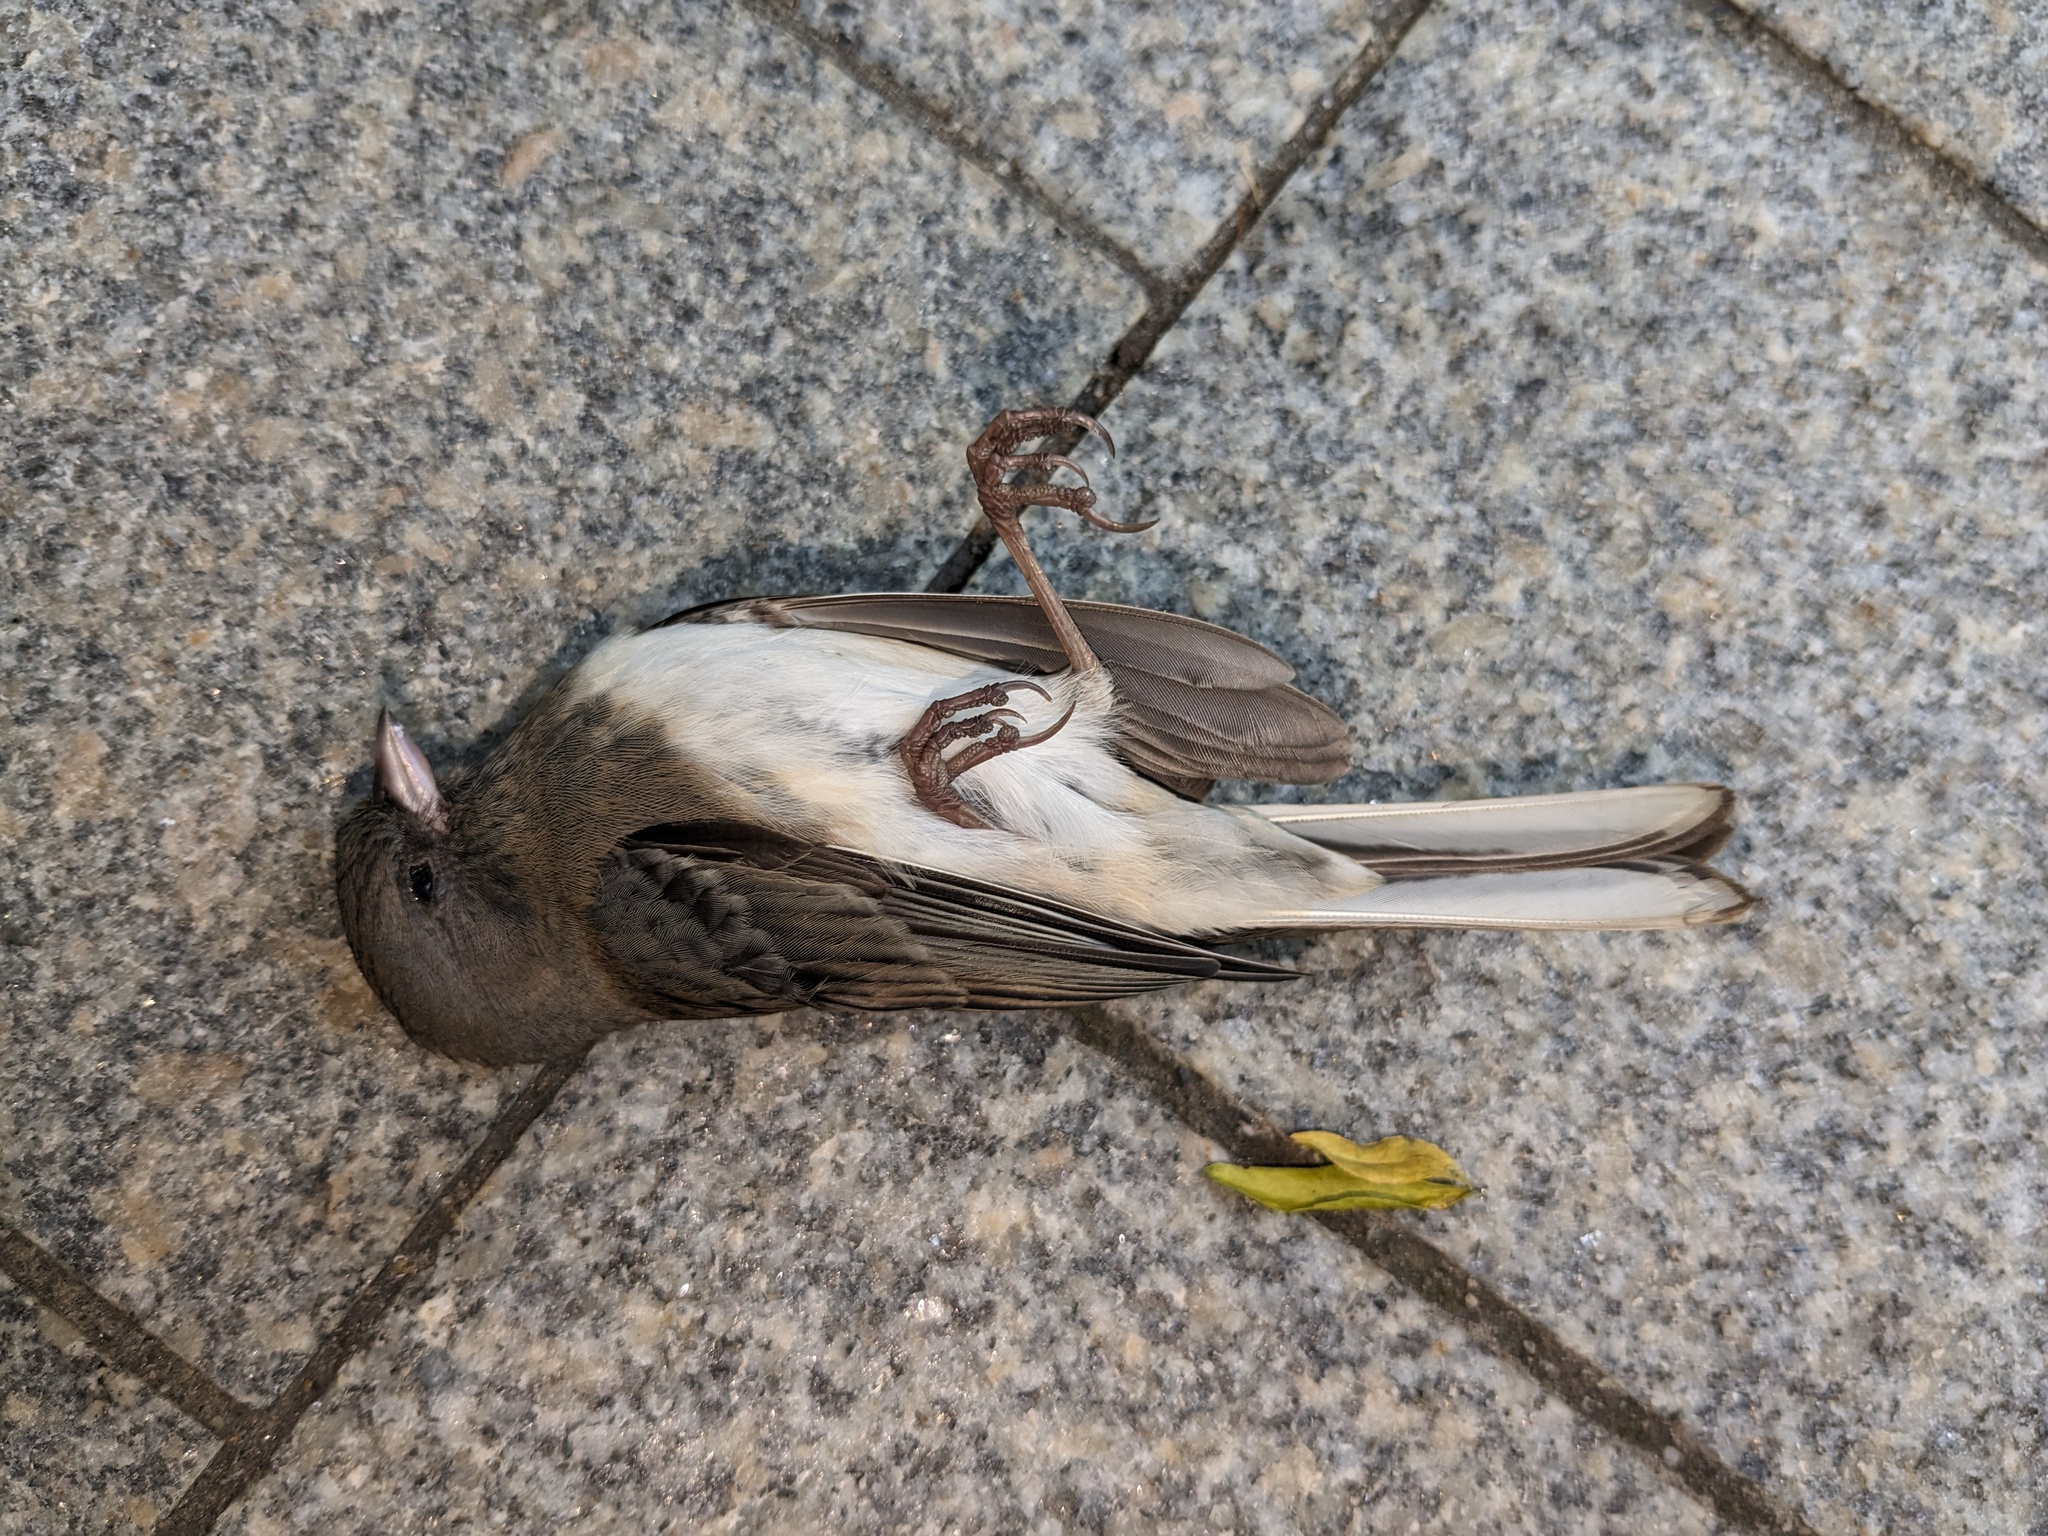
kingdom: Animalia
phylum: Chordata
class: Aves
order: Passeriformes
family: Passerellidae
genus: Junco
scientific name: Junco hyemalis
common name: Dark-eyed junco
